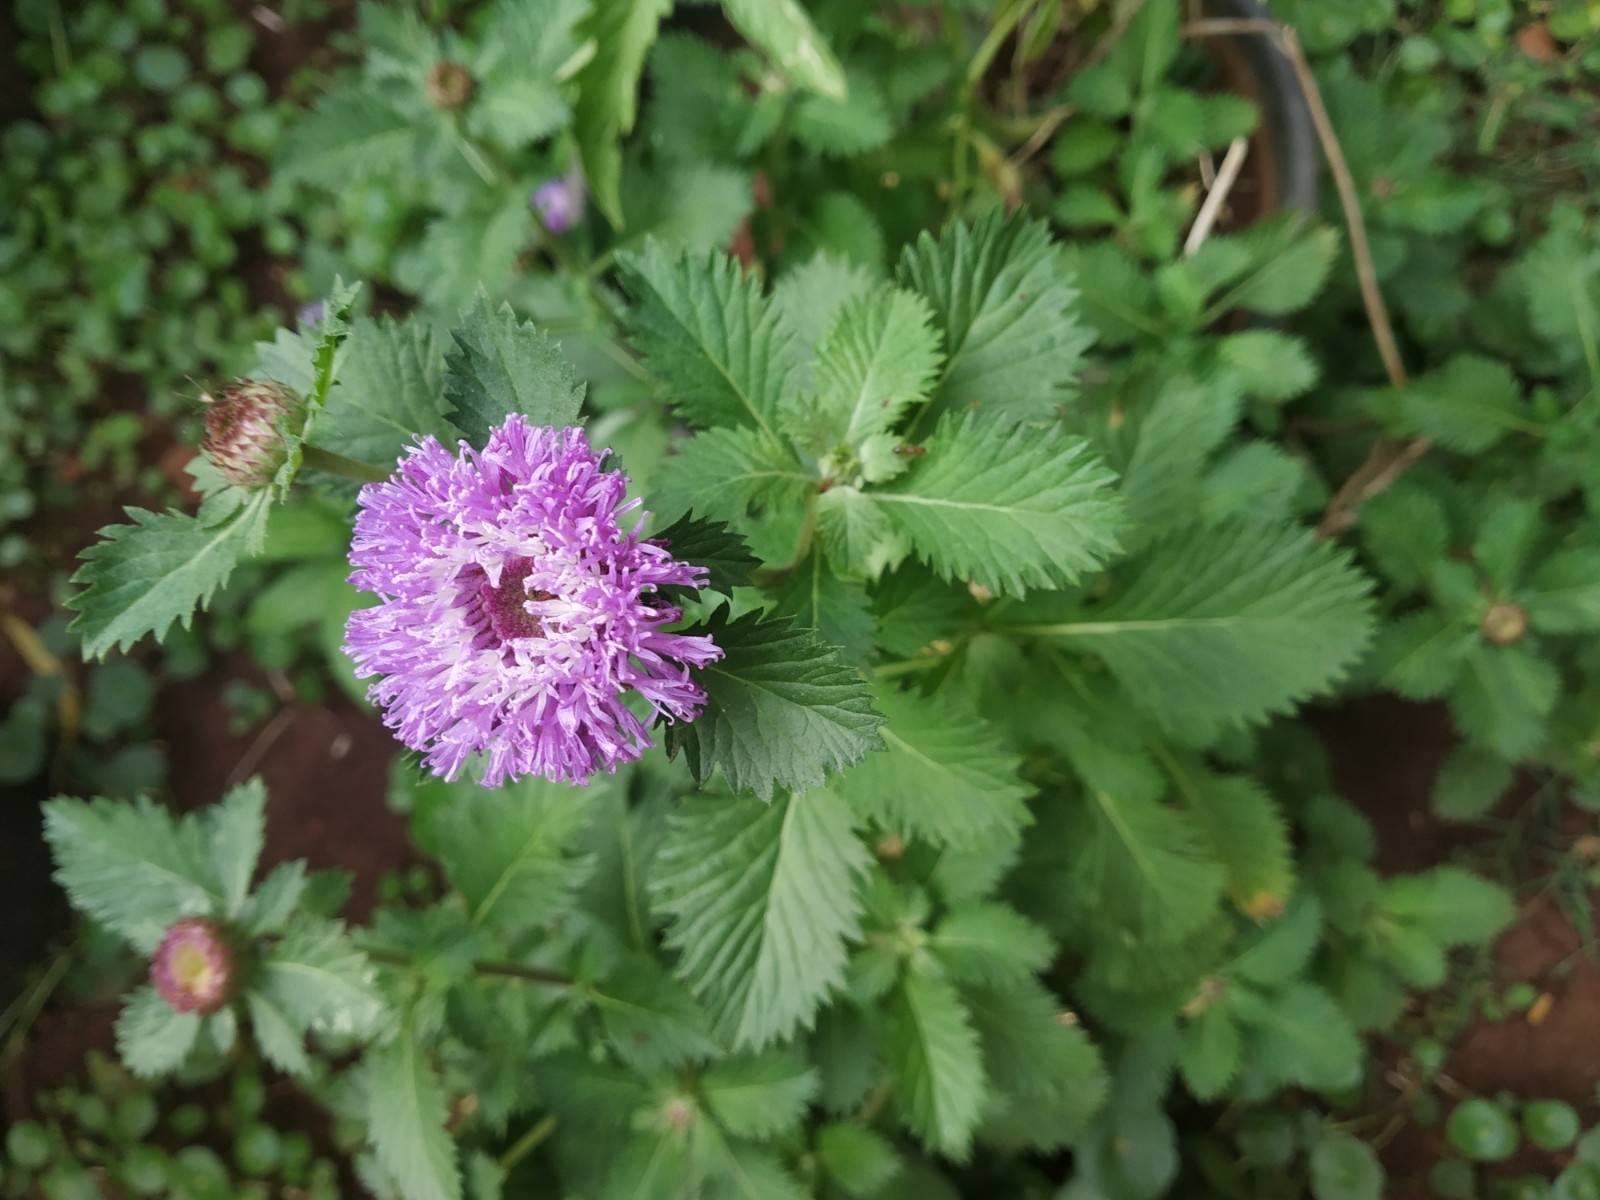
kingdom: Plantae
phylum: Tracheophyta
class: Magnoliopsida
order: Asterales
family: Asteraceae
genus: Centratherum
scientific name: Centratherum punctatum
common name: Larkdaisy
